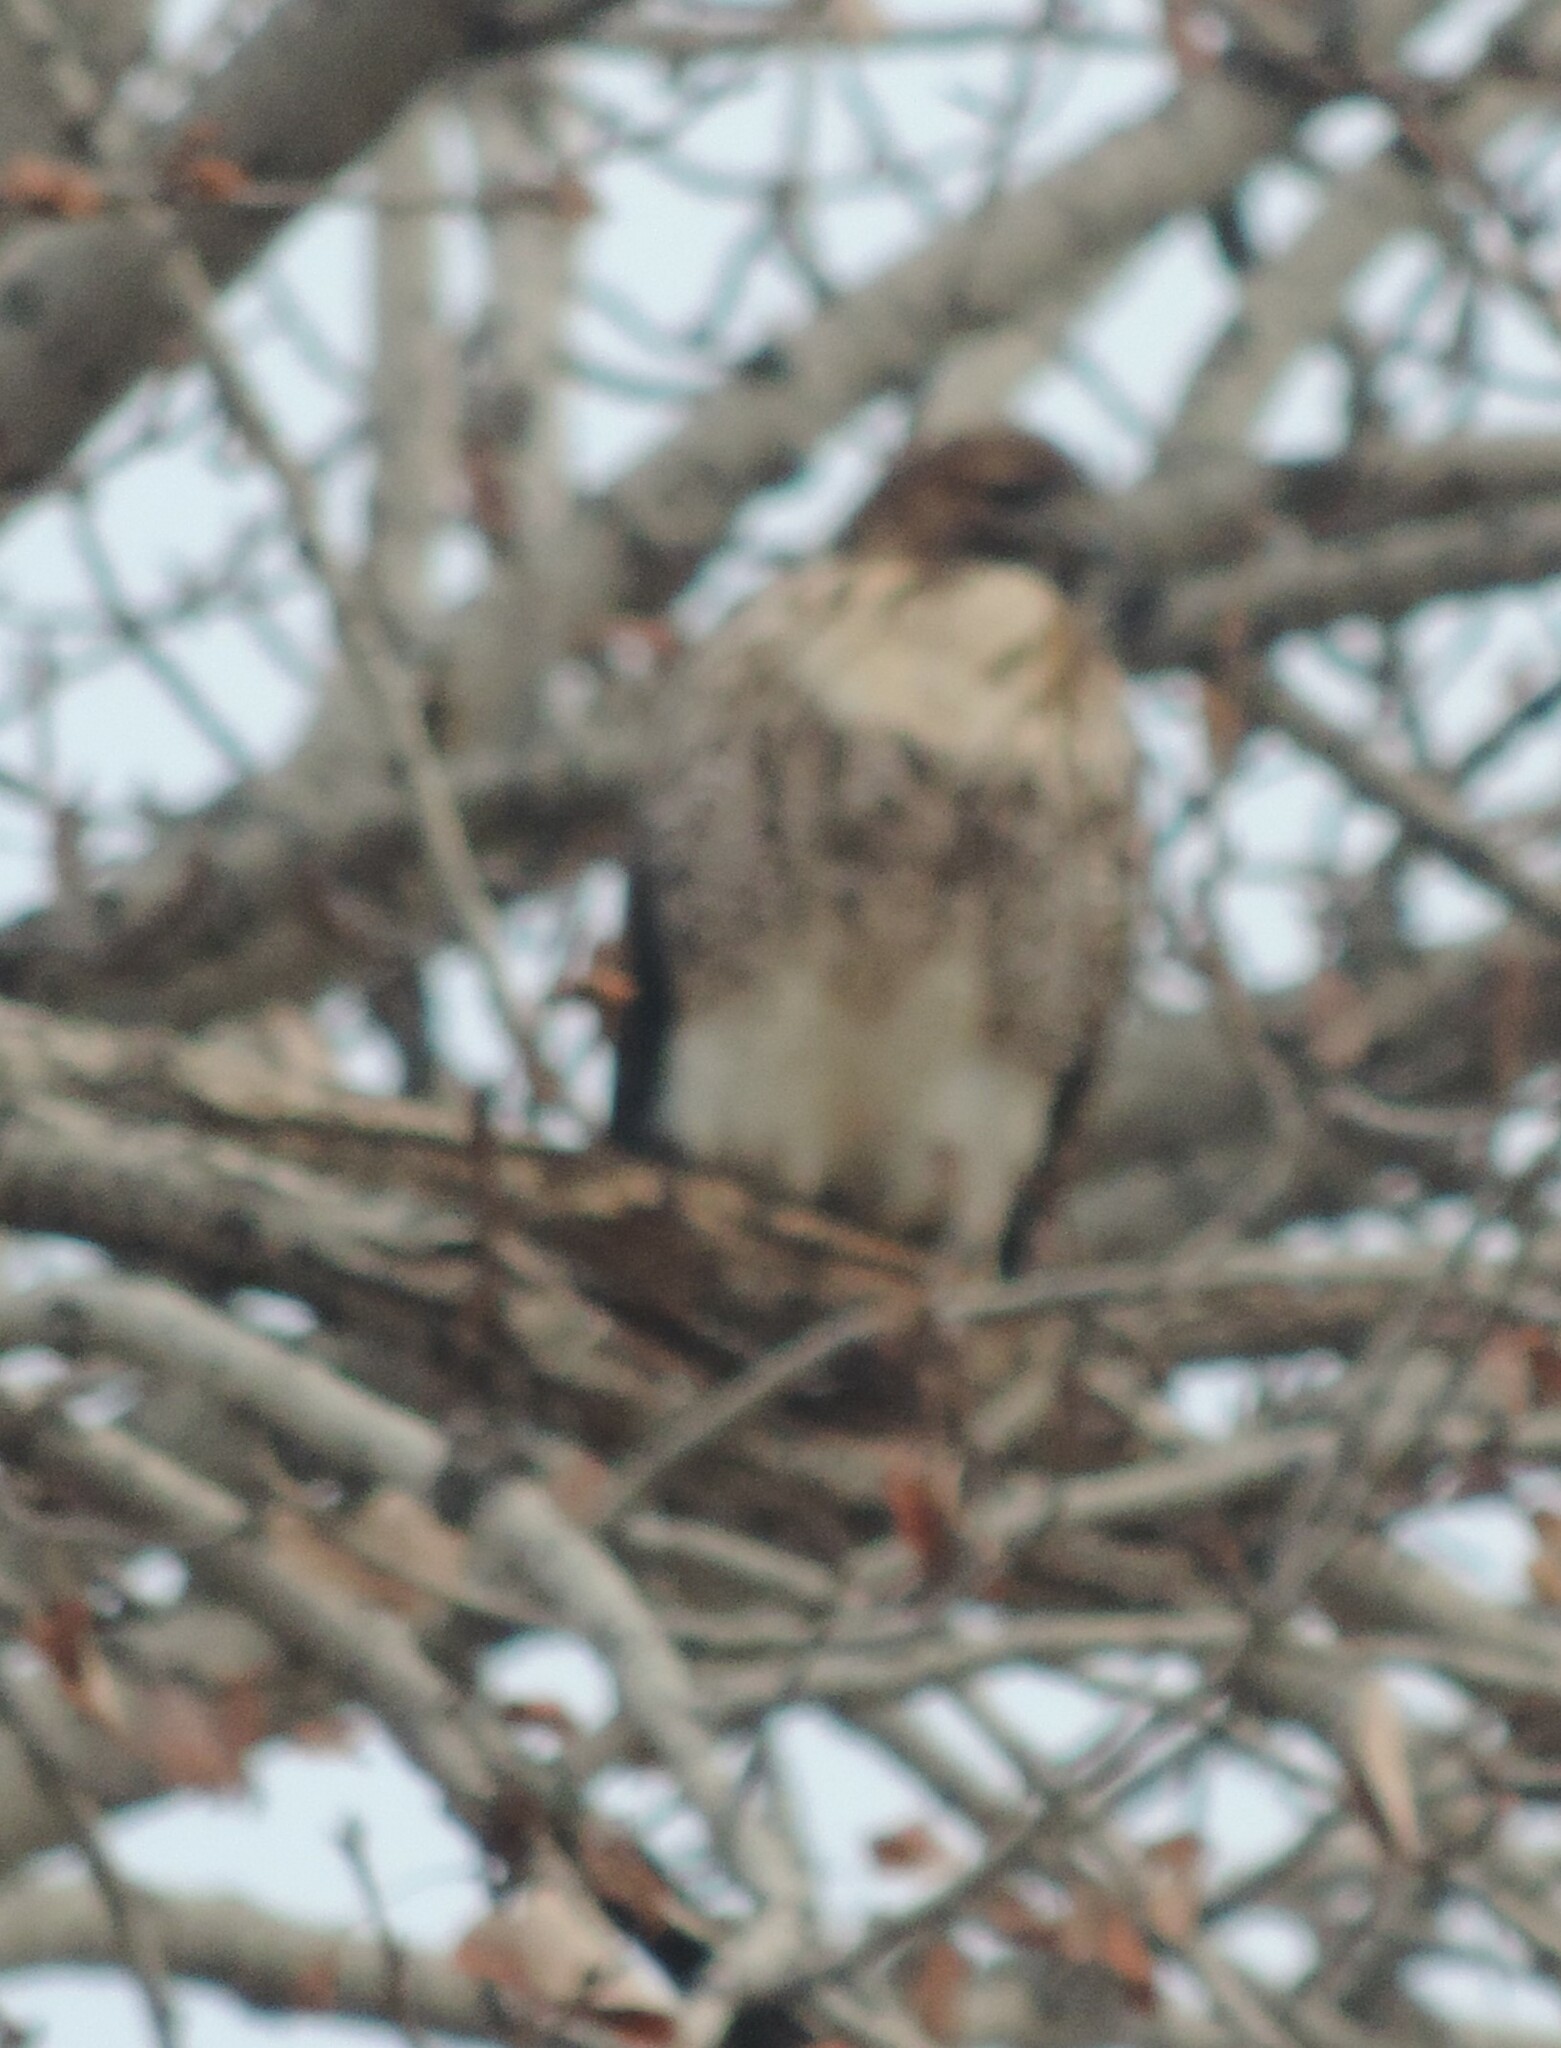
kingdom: Animalia
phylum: Chordata
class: Aves
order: Accipitriformes
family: Accipitridae
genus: Buteo
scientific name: Buteo jamaicensis
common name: Red-tailed hawk
